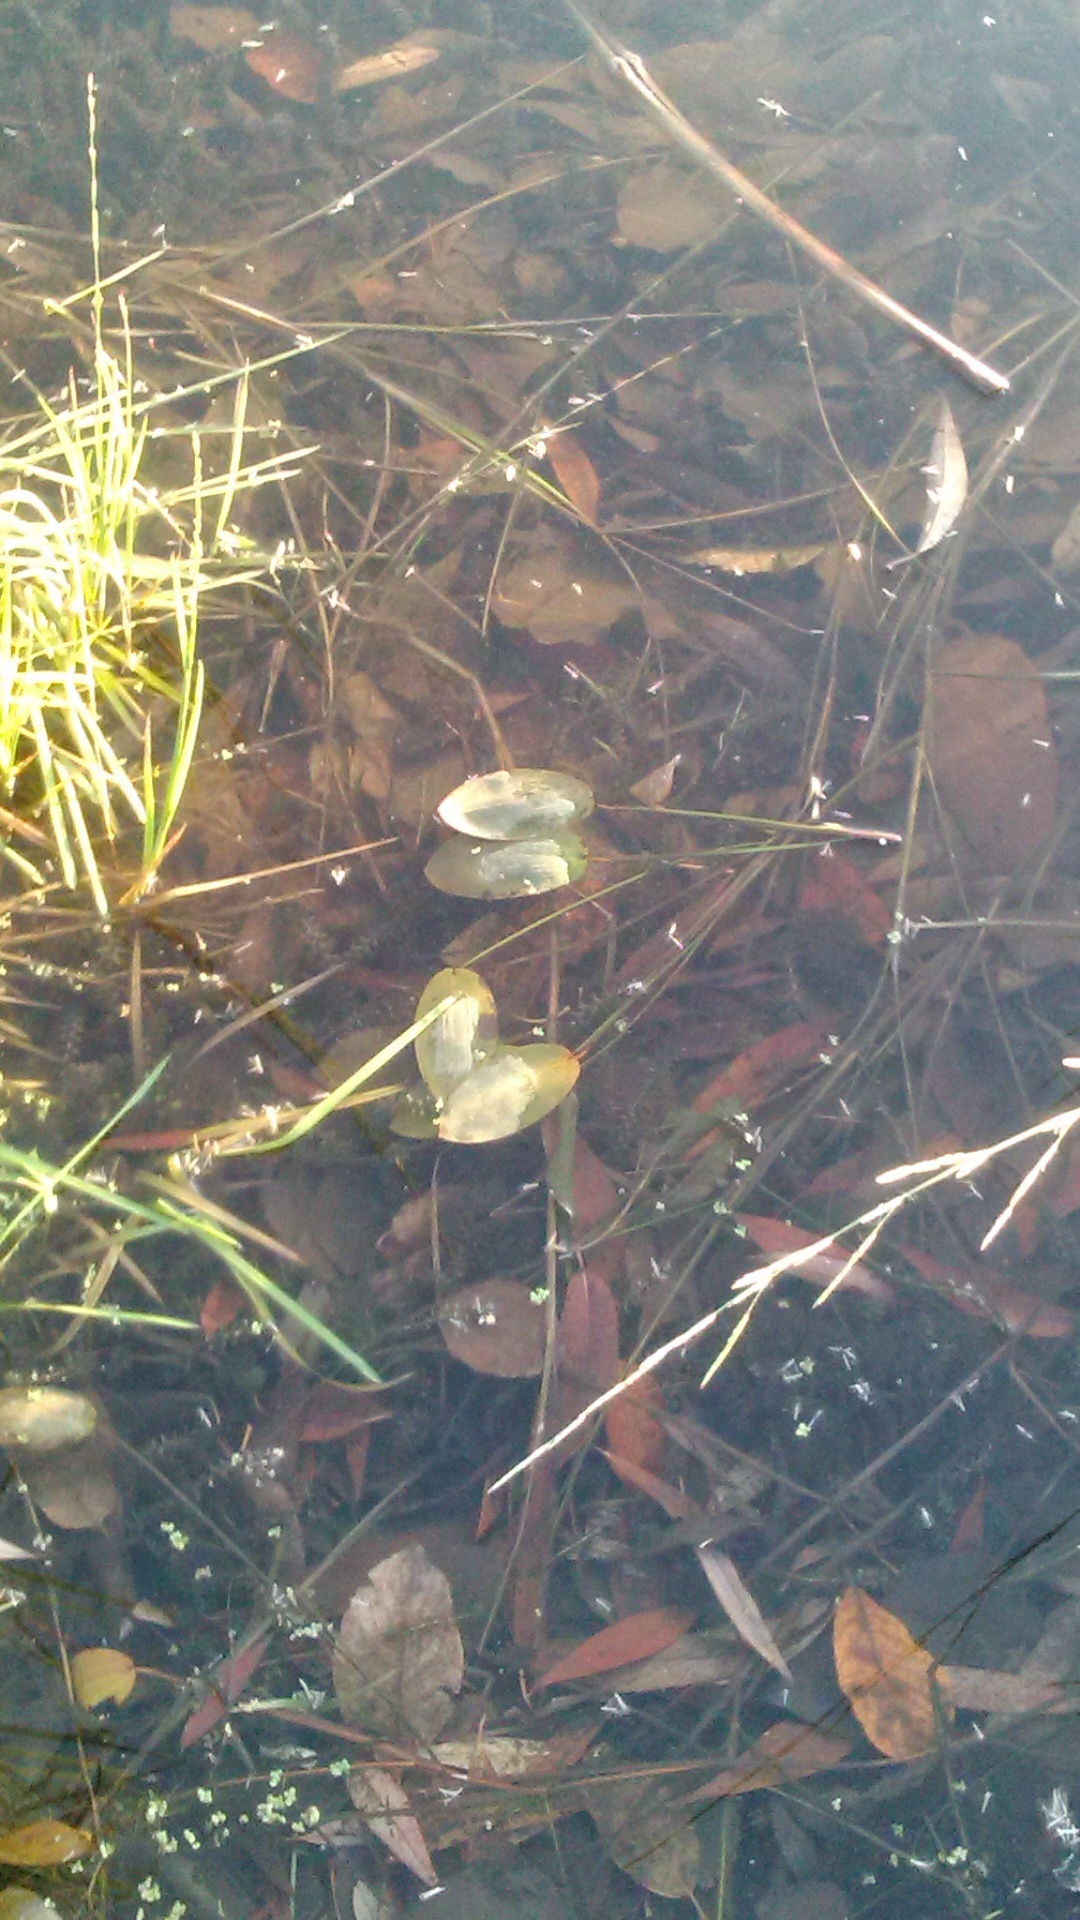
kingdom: Plantae
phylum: Tracheophyta
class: Liliopsida
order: Alismatales
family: Potamogetonaceae
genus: Potamogeton
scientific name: Potamogeton natans
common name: Broad-leaved pondweed
